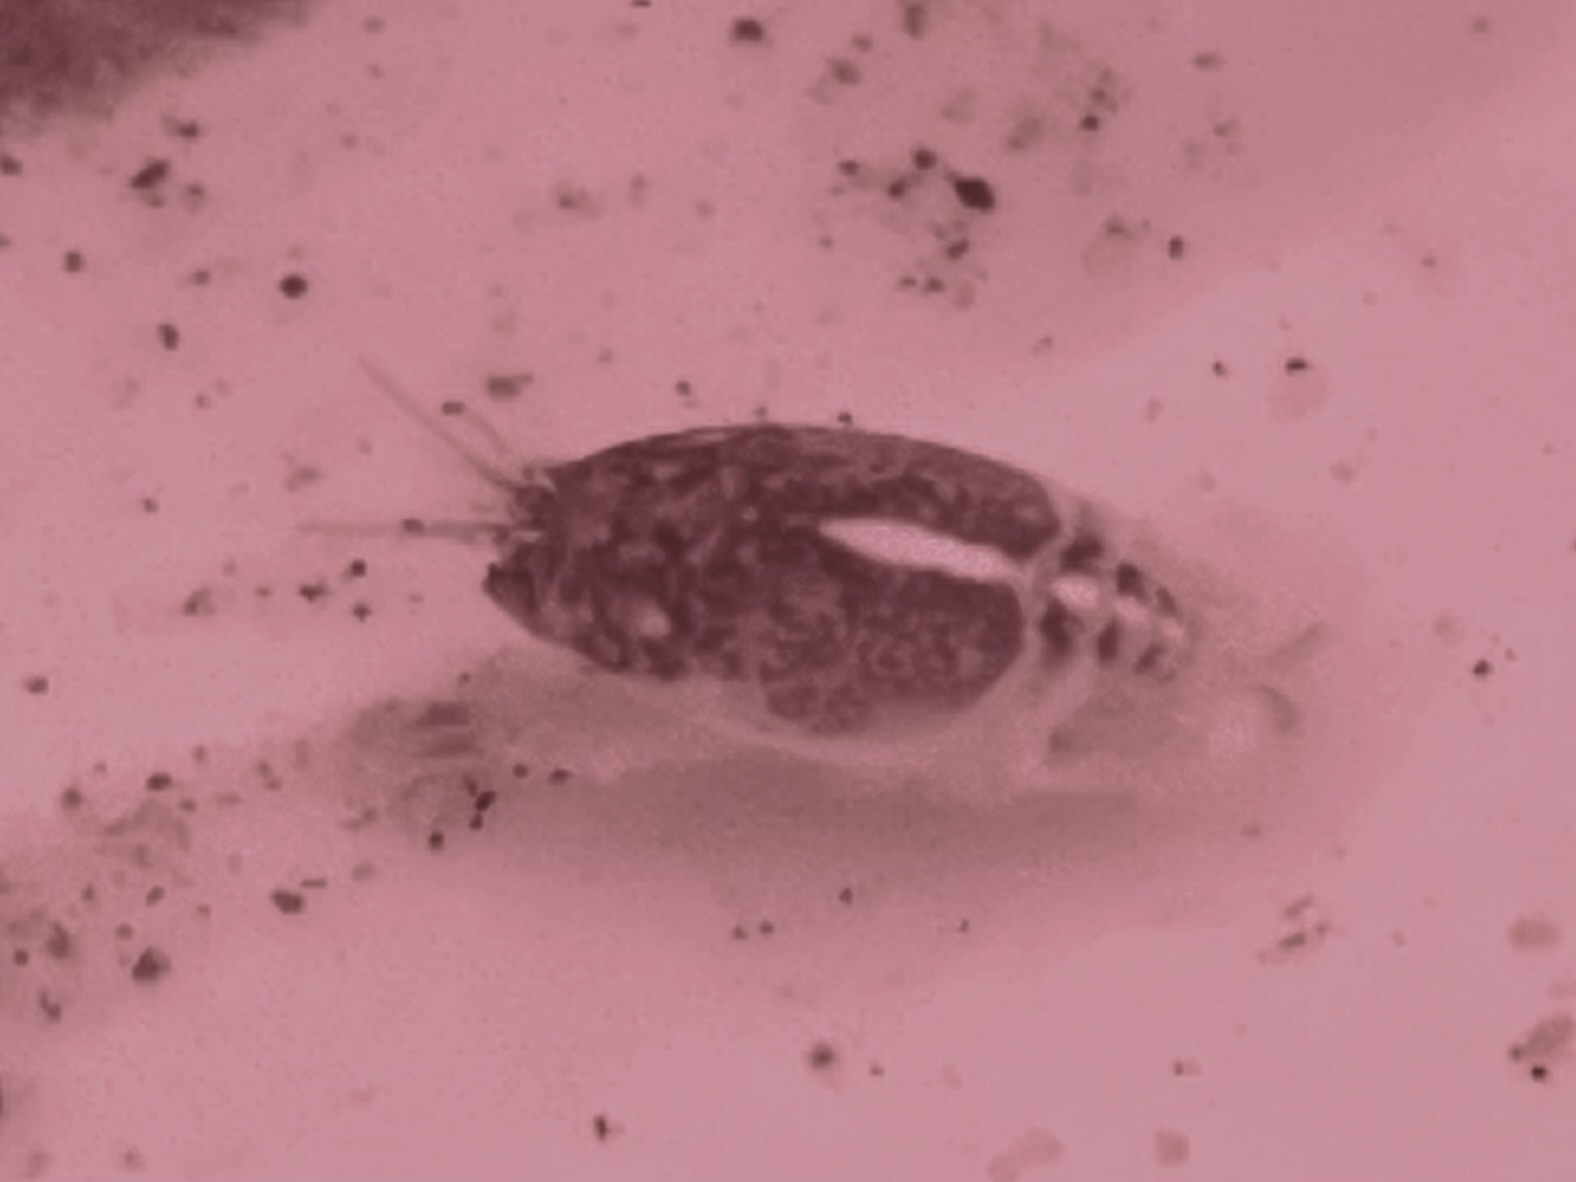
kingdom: Animalia
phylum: Arthropoda
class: Malacostraca
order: Decapoda
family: Hippidae
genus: Emerita
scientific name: Emerita analoga
